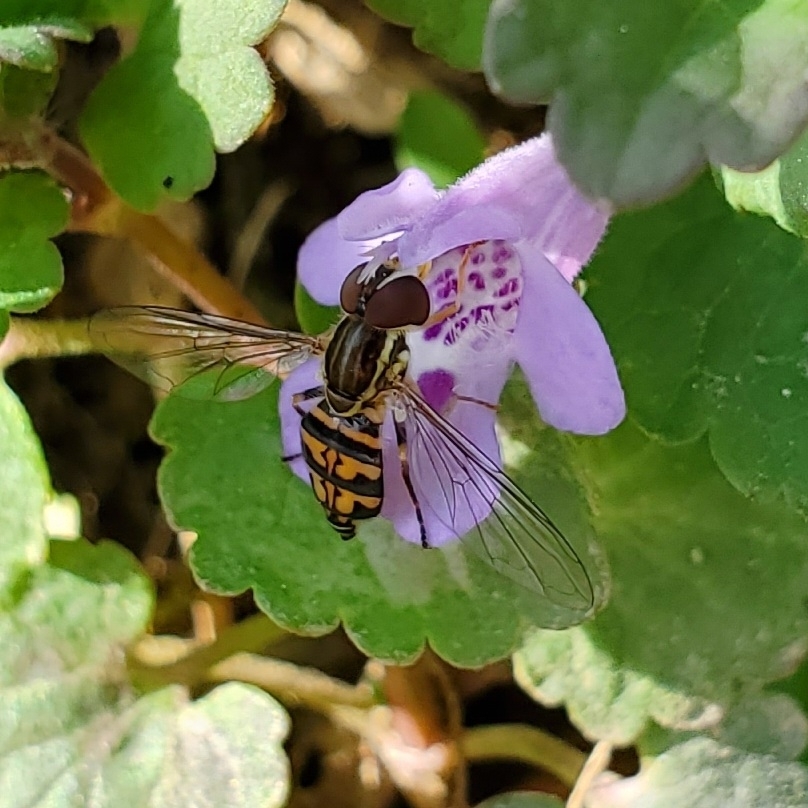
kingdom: Animalia
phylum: Arthropoda
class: Insecta
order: Diptera
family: Syrphidae
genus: Toxomerus
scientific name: Toxomerus geminatus
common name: Eastern calligrapher
